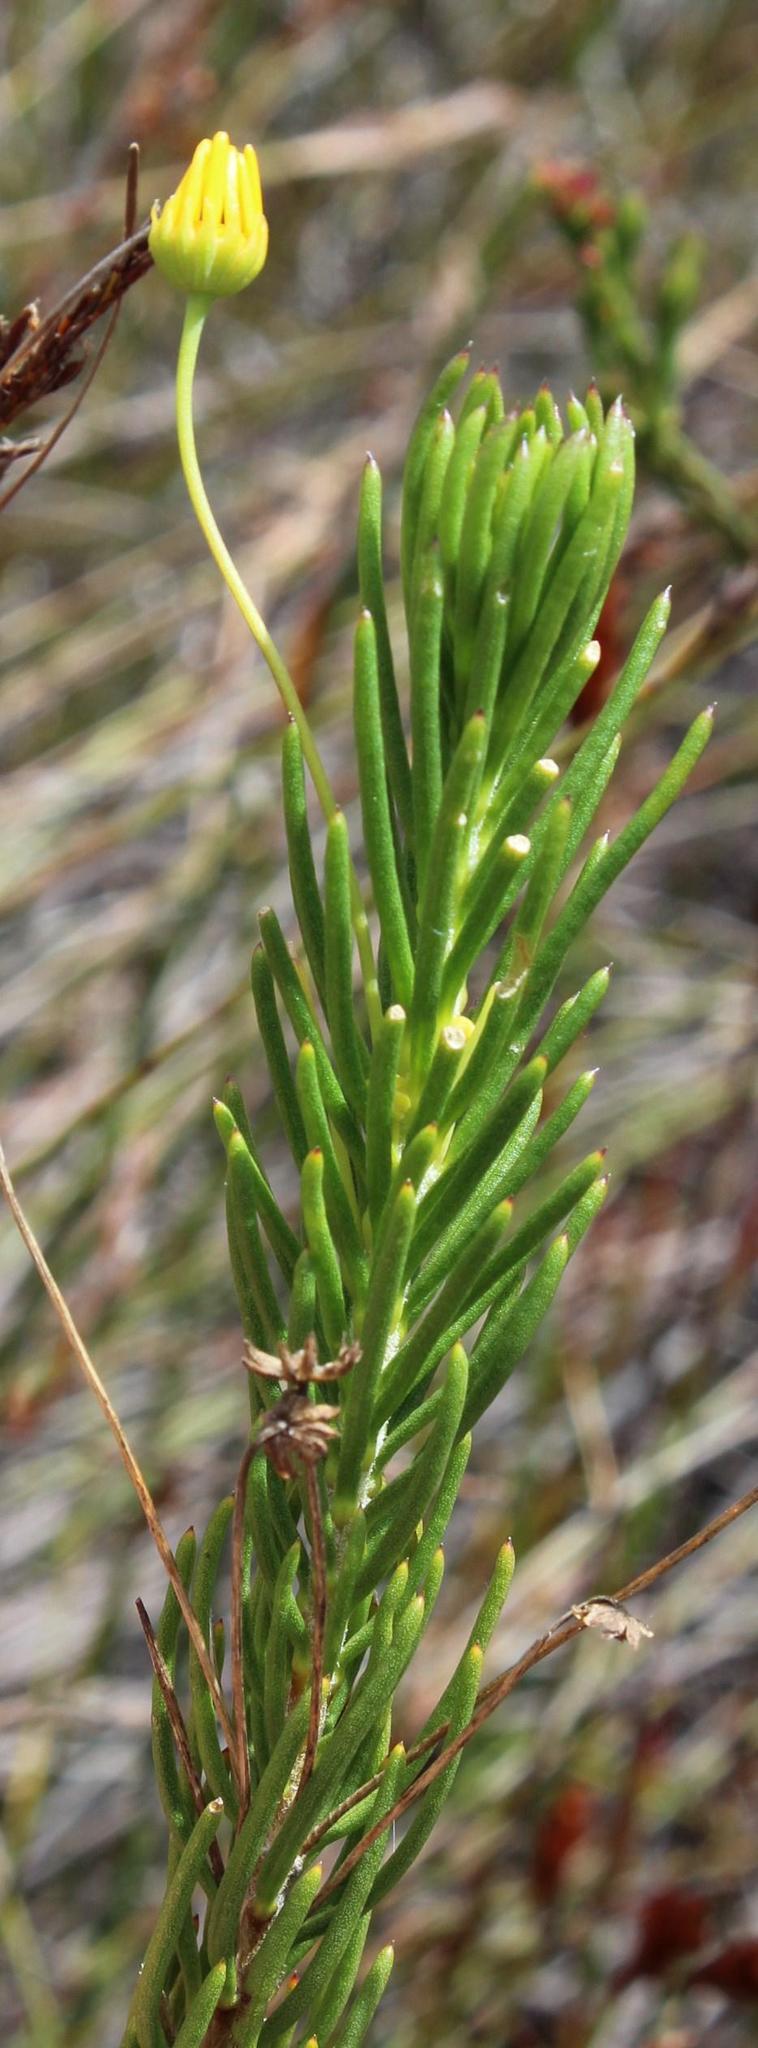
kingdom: Plantae
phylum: Tracheophyta
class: Magnoliopsida
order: Asterales
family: Asteraceae
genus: Euryops
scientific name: Euryops rehmannii
